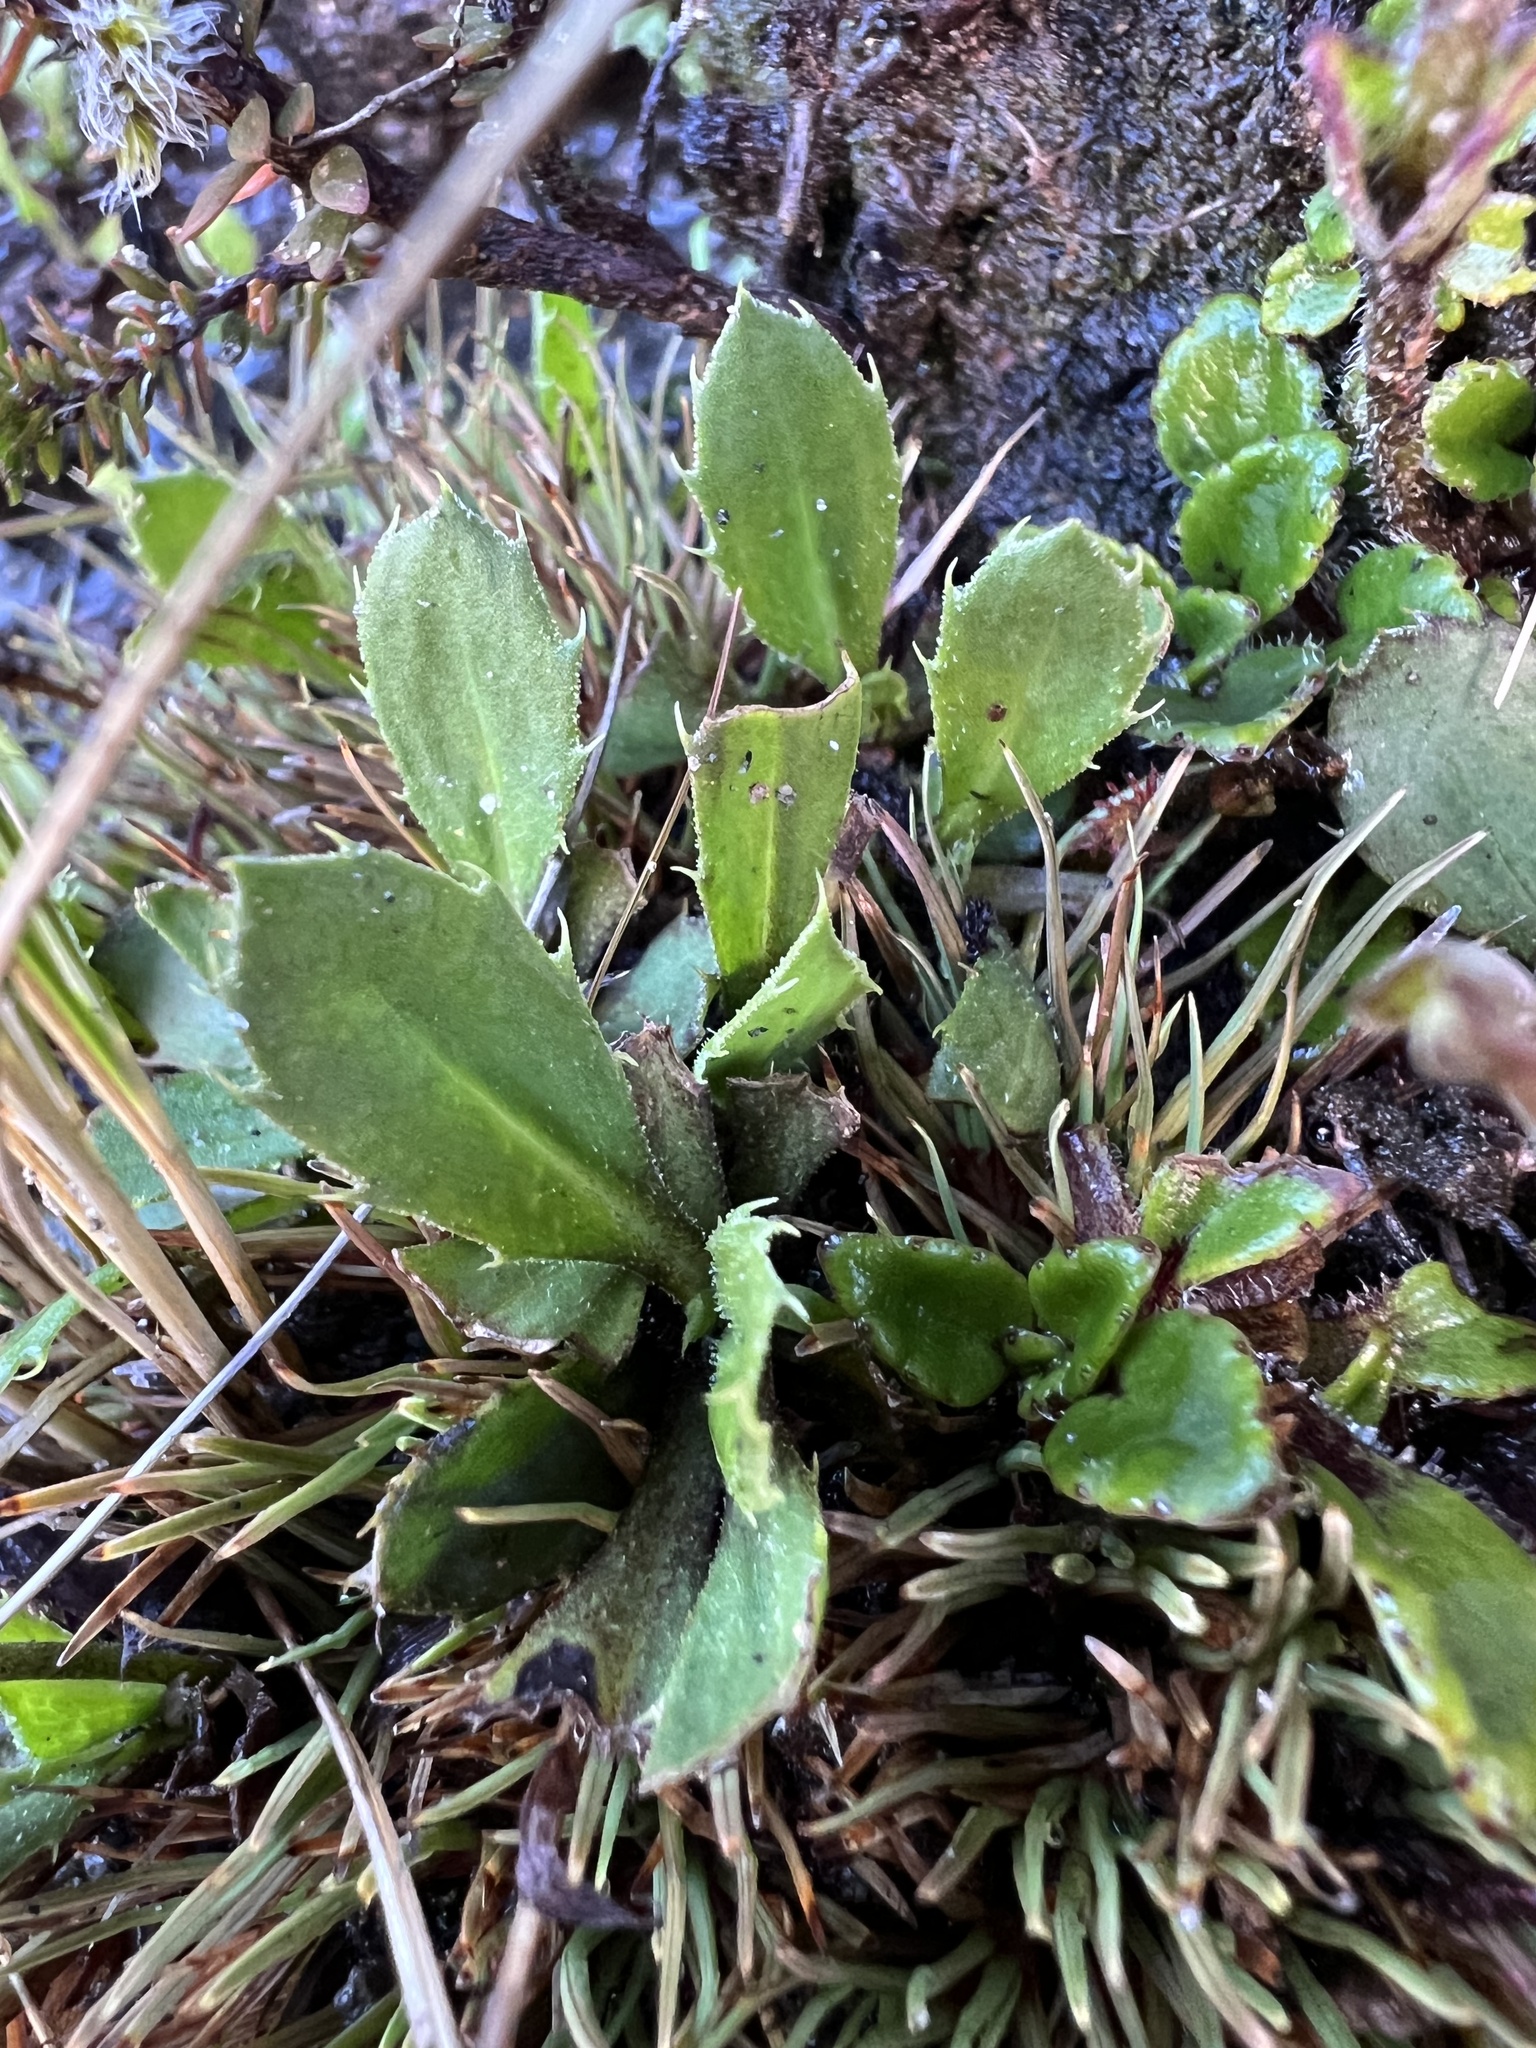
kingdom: Plantae
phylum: Tracheophyta
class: Magnoliopsida
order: Asterales
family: Asteraceae
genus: Celmisia
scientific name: Celmisia glandulosa
